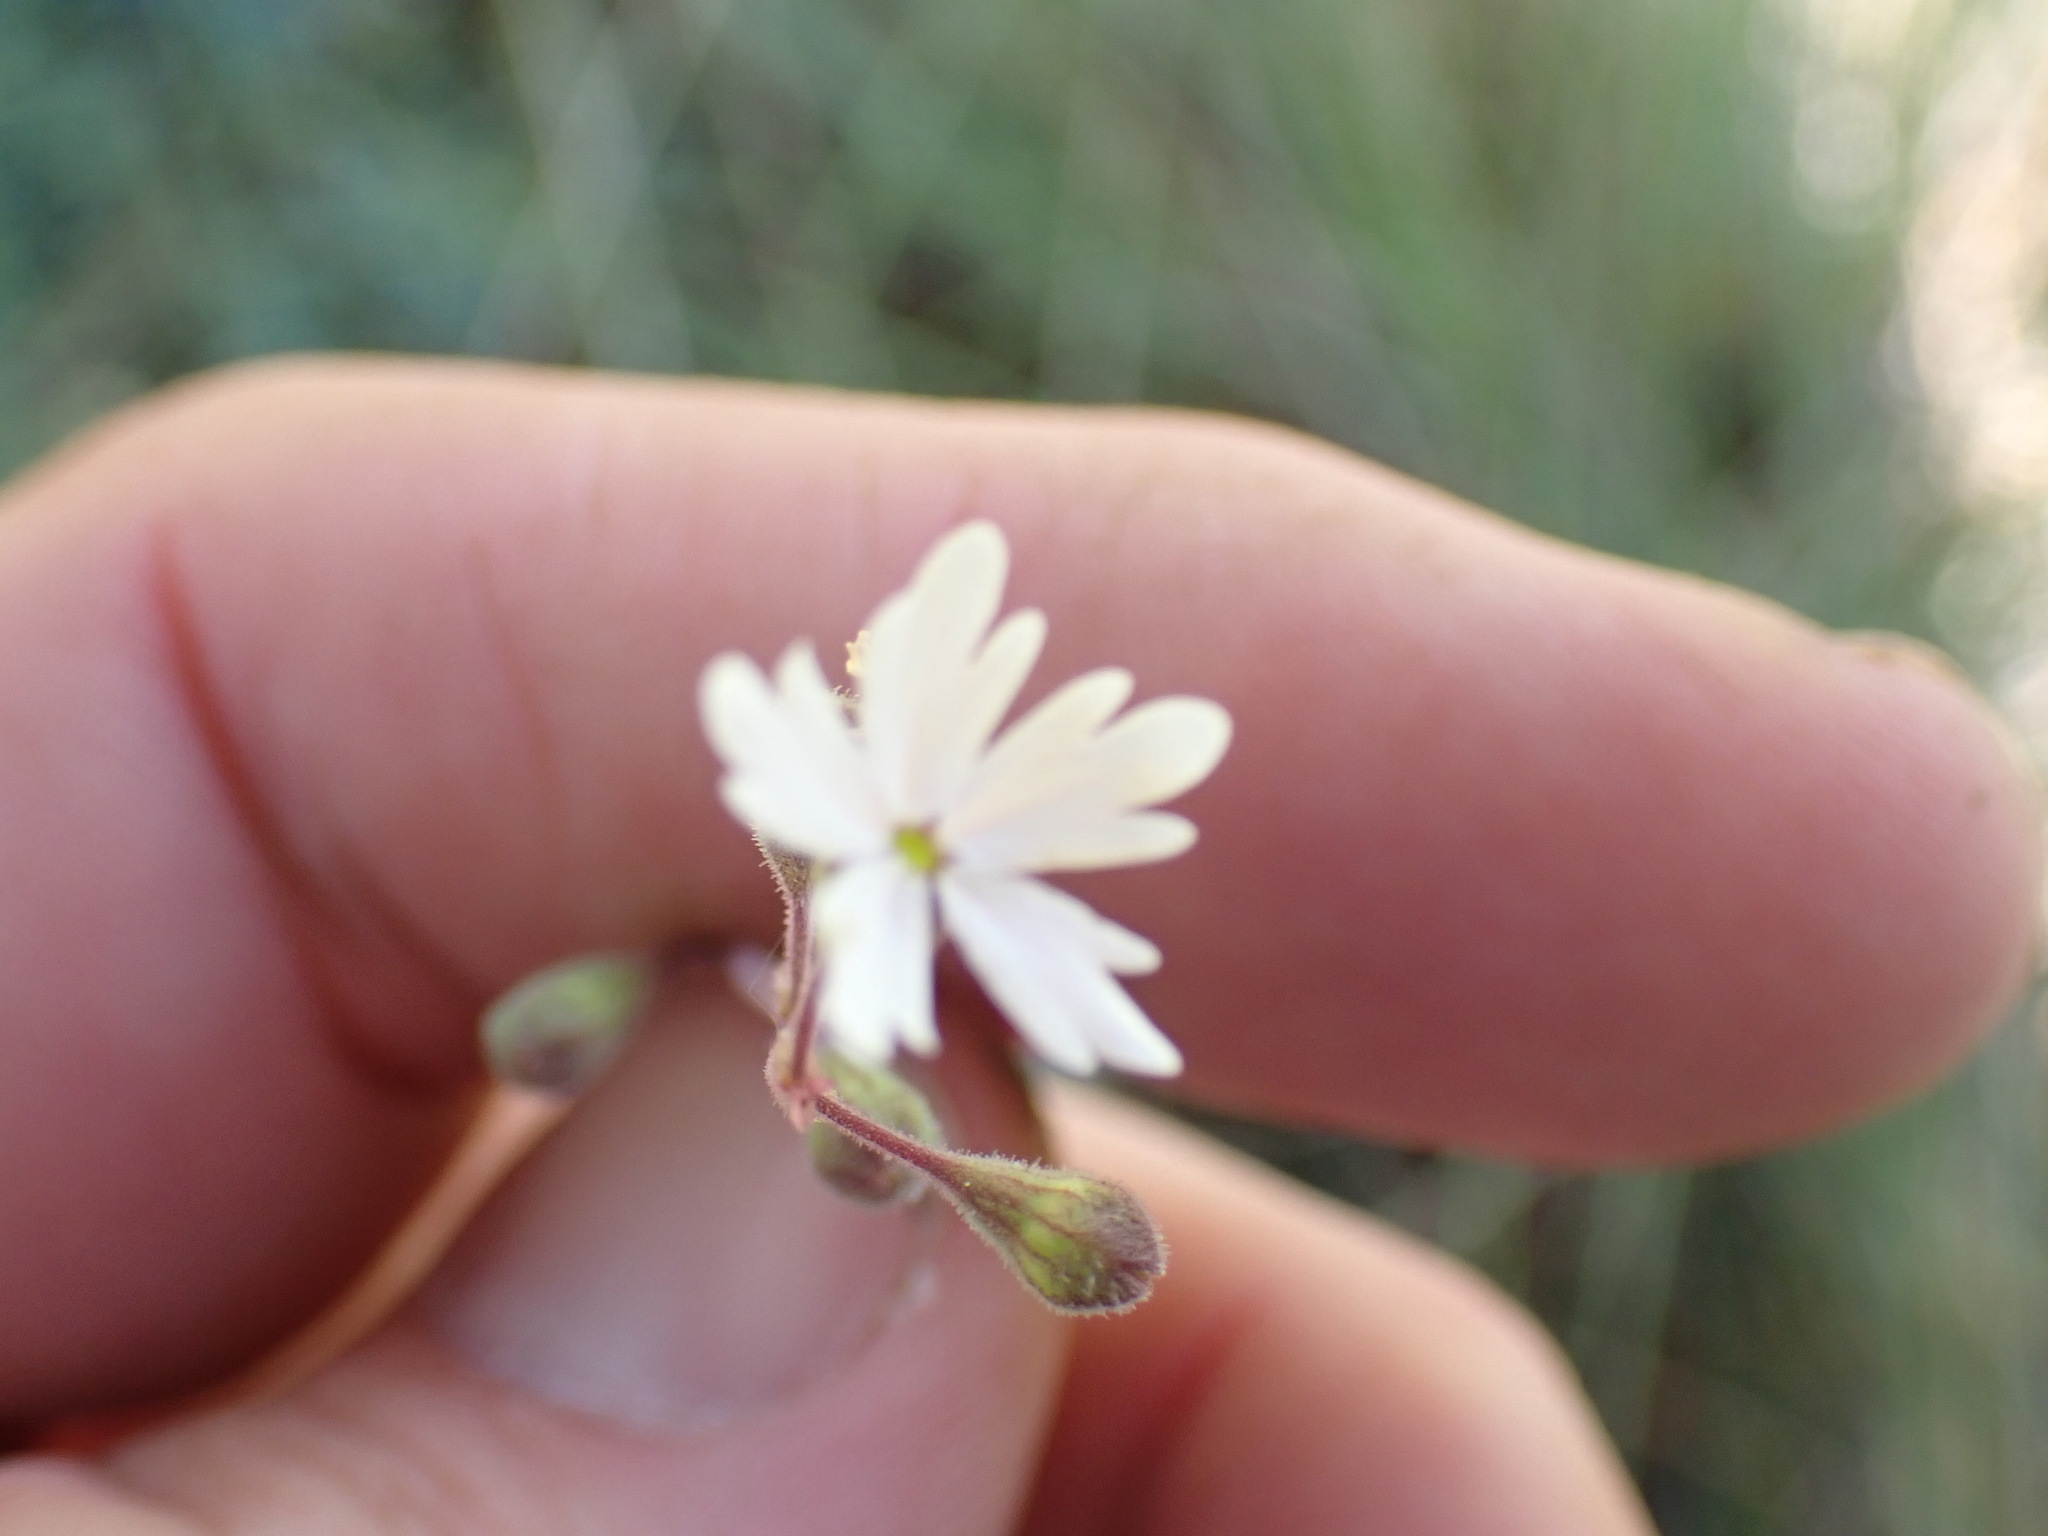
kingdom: Plantae
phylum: Tracheophyta
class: Magnoliopsida
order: Saxifragales
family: Saxifragaceae
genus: Lithophragma
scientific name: Lithophragma parviflorum
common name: Small-flowered fringe-cup
